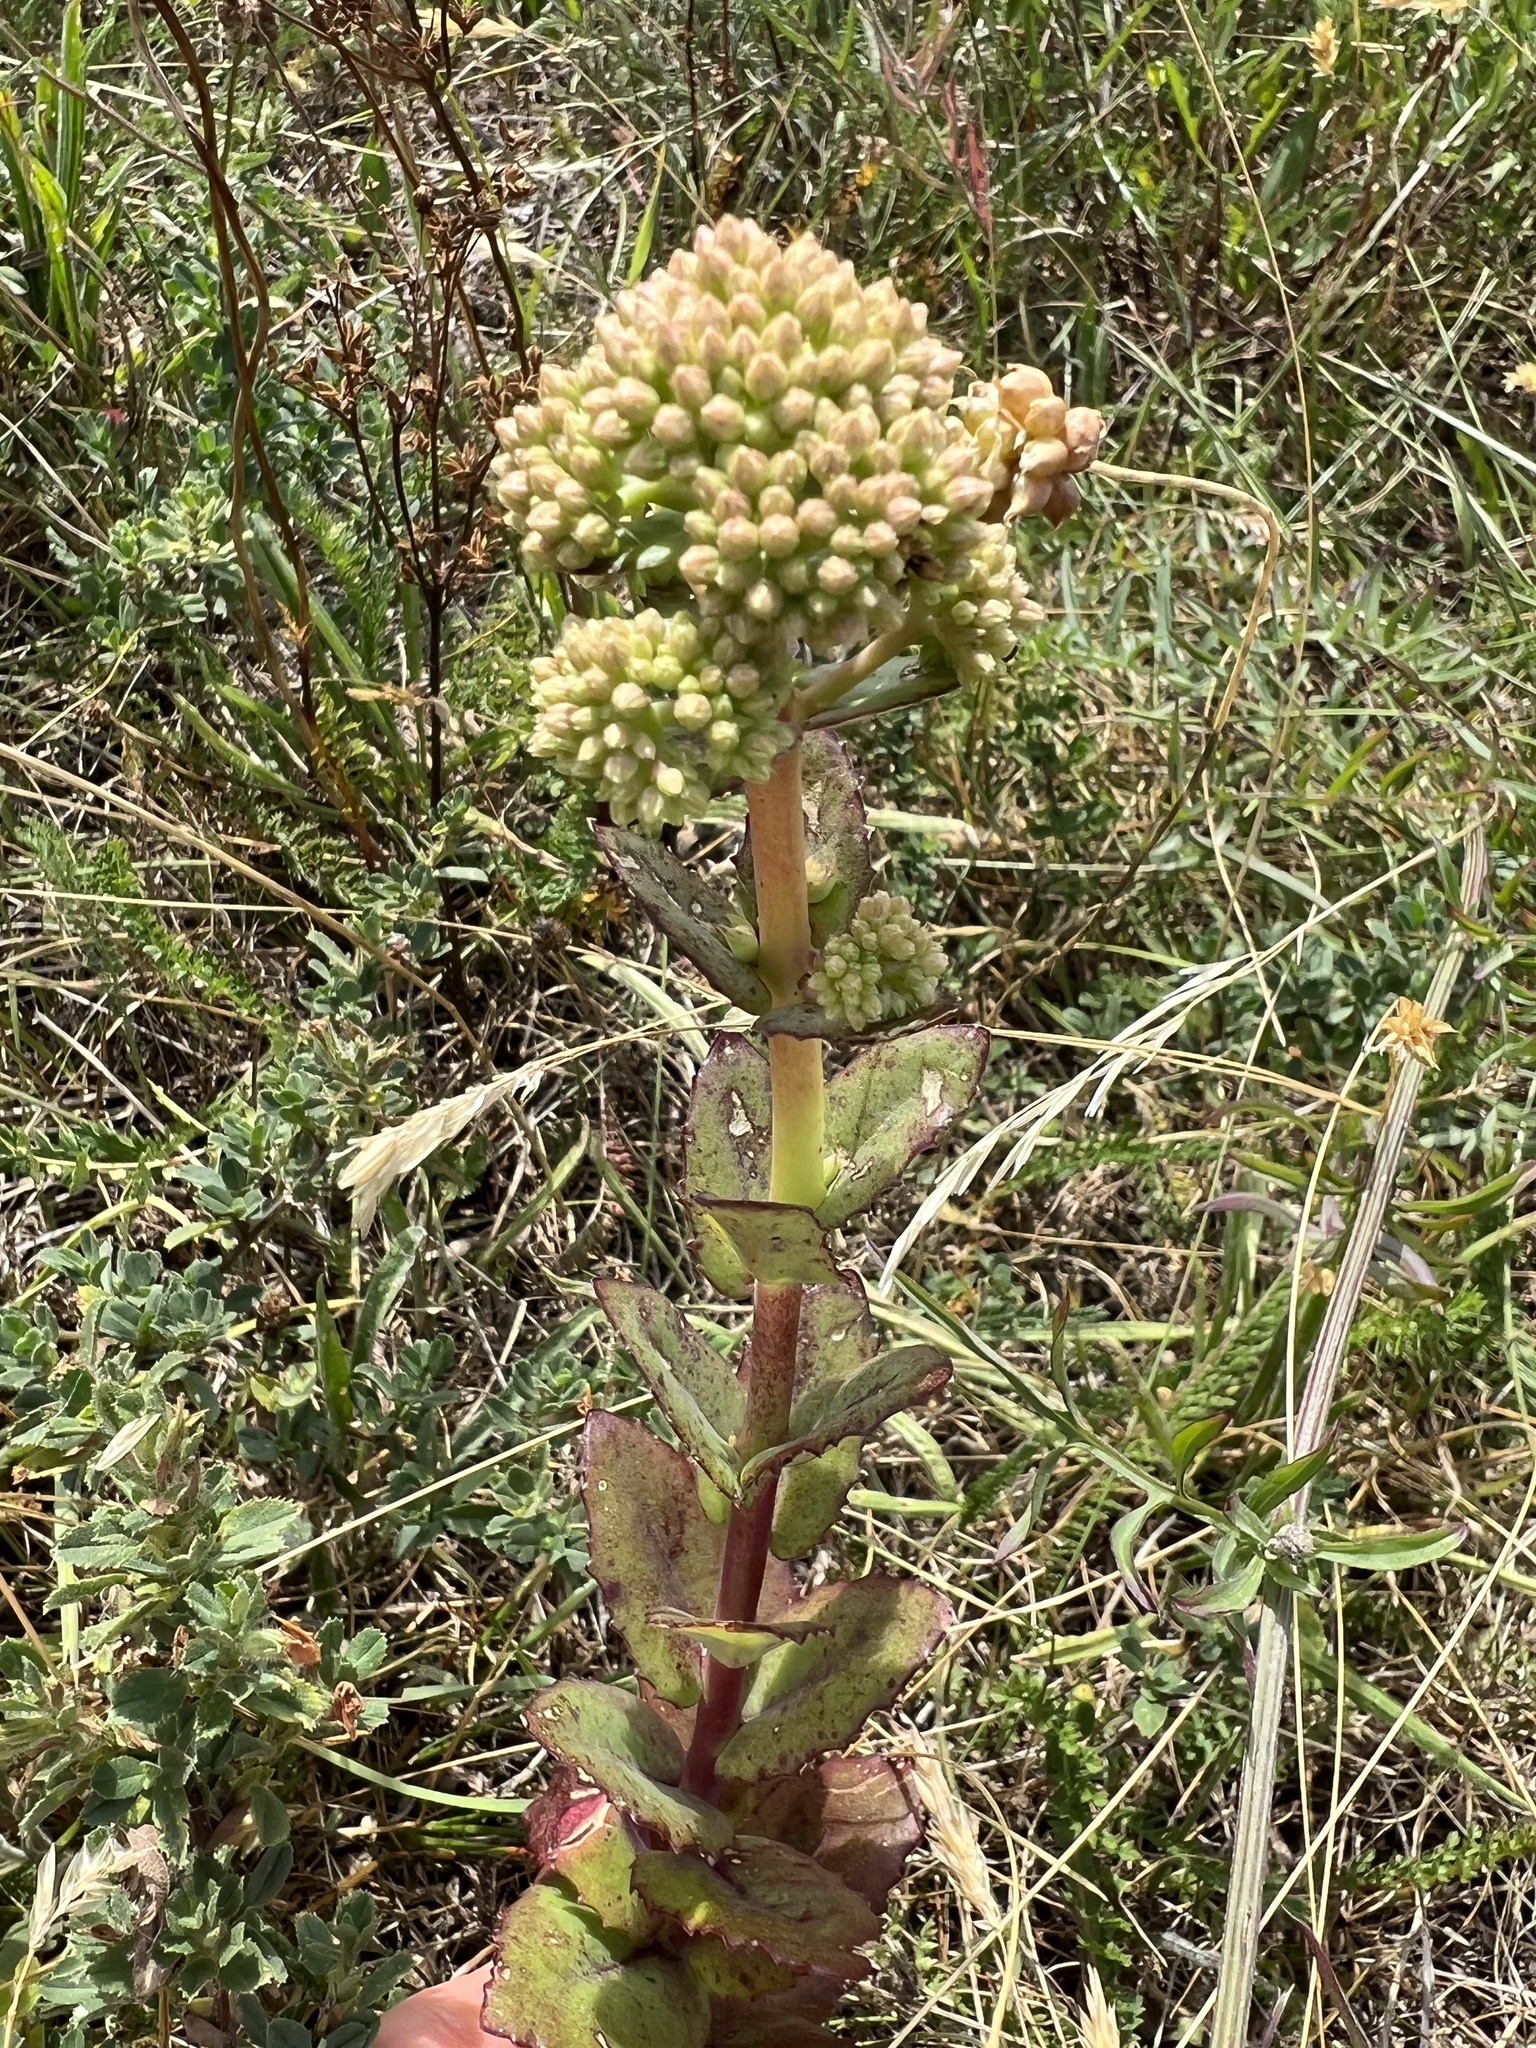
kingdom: Plantae
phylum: Tracheophyta
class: Magnoliopsida
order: Saxifragales
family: Crassulaceae
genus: Hylotelephium
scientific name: Hylotelephium maximum
